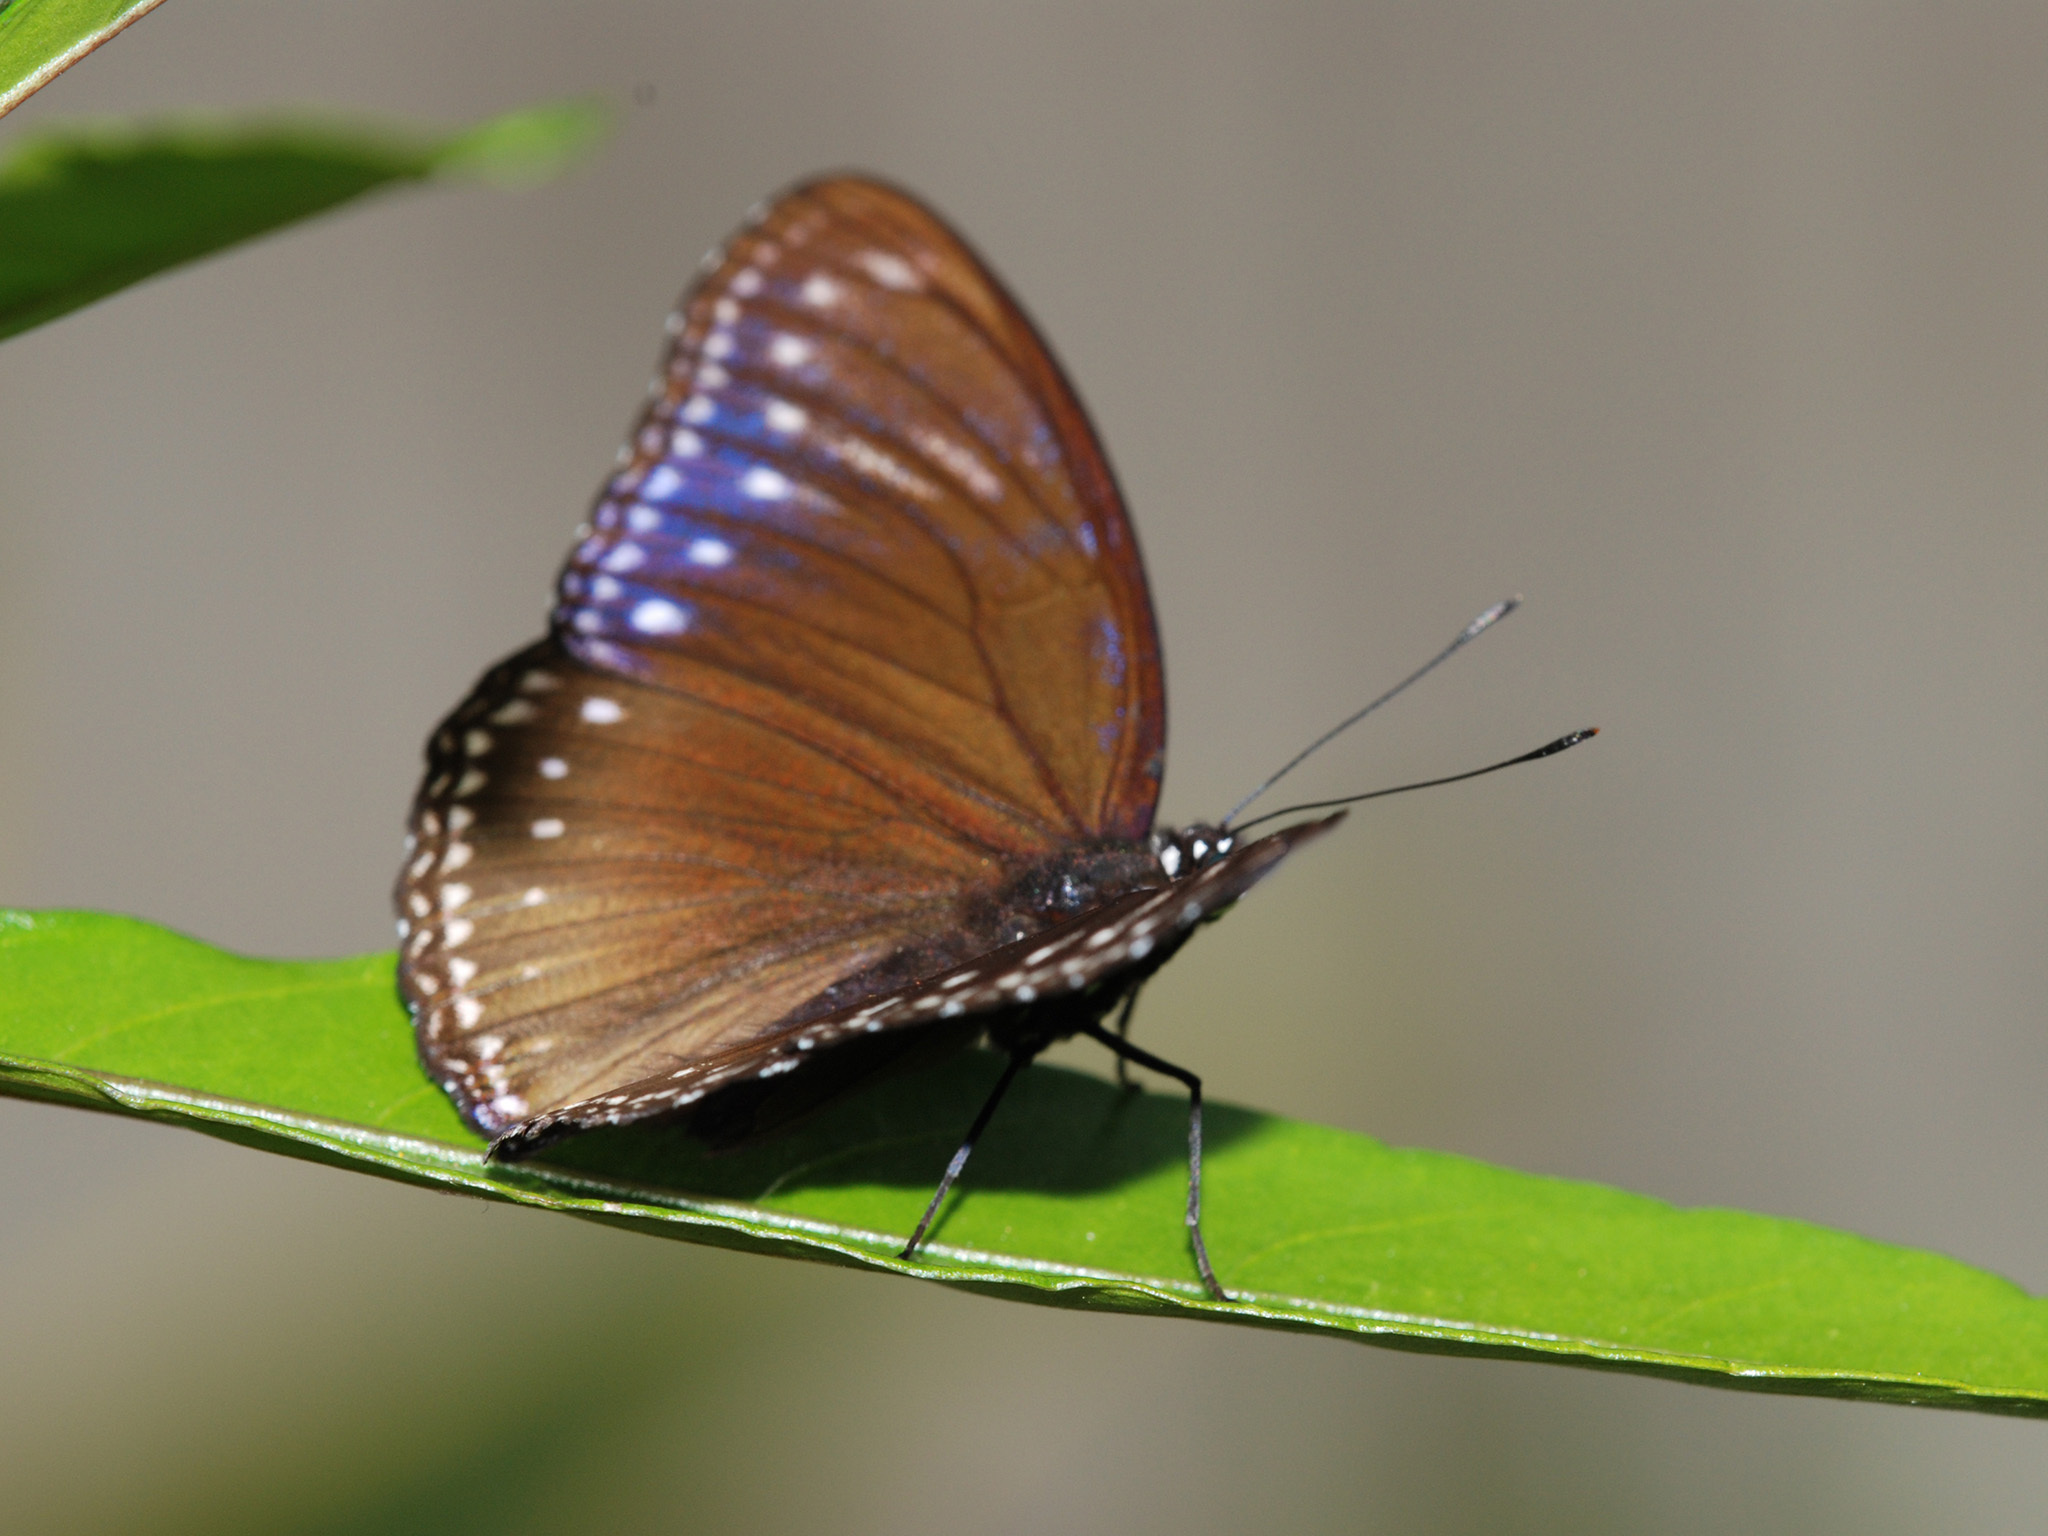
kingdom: Animalia
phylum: Arthropoda
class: Insecta
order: Lepidoptera
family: Nymphalidae
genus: Hypolimnas
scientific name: Hypolimnas anomala
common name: Malayan eggfly
